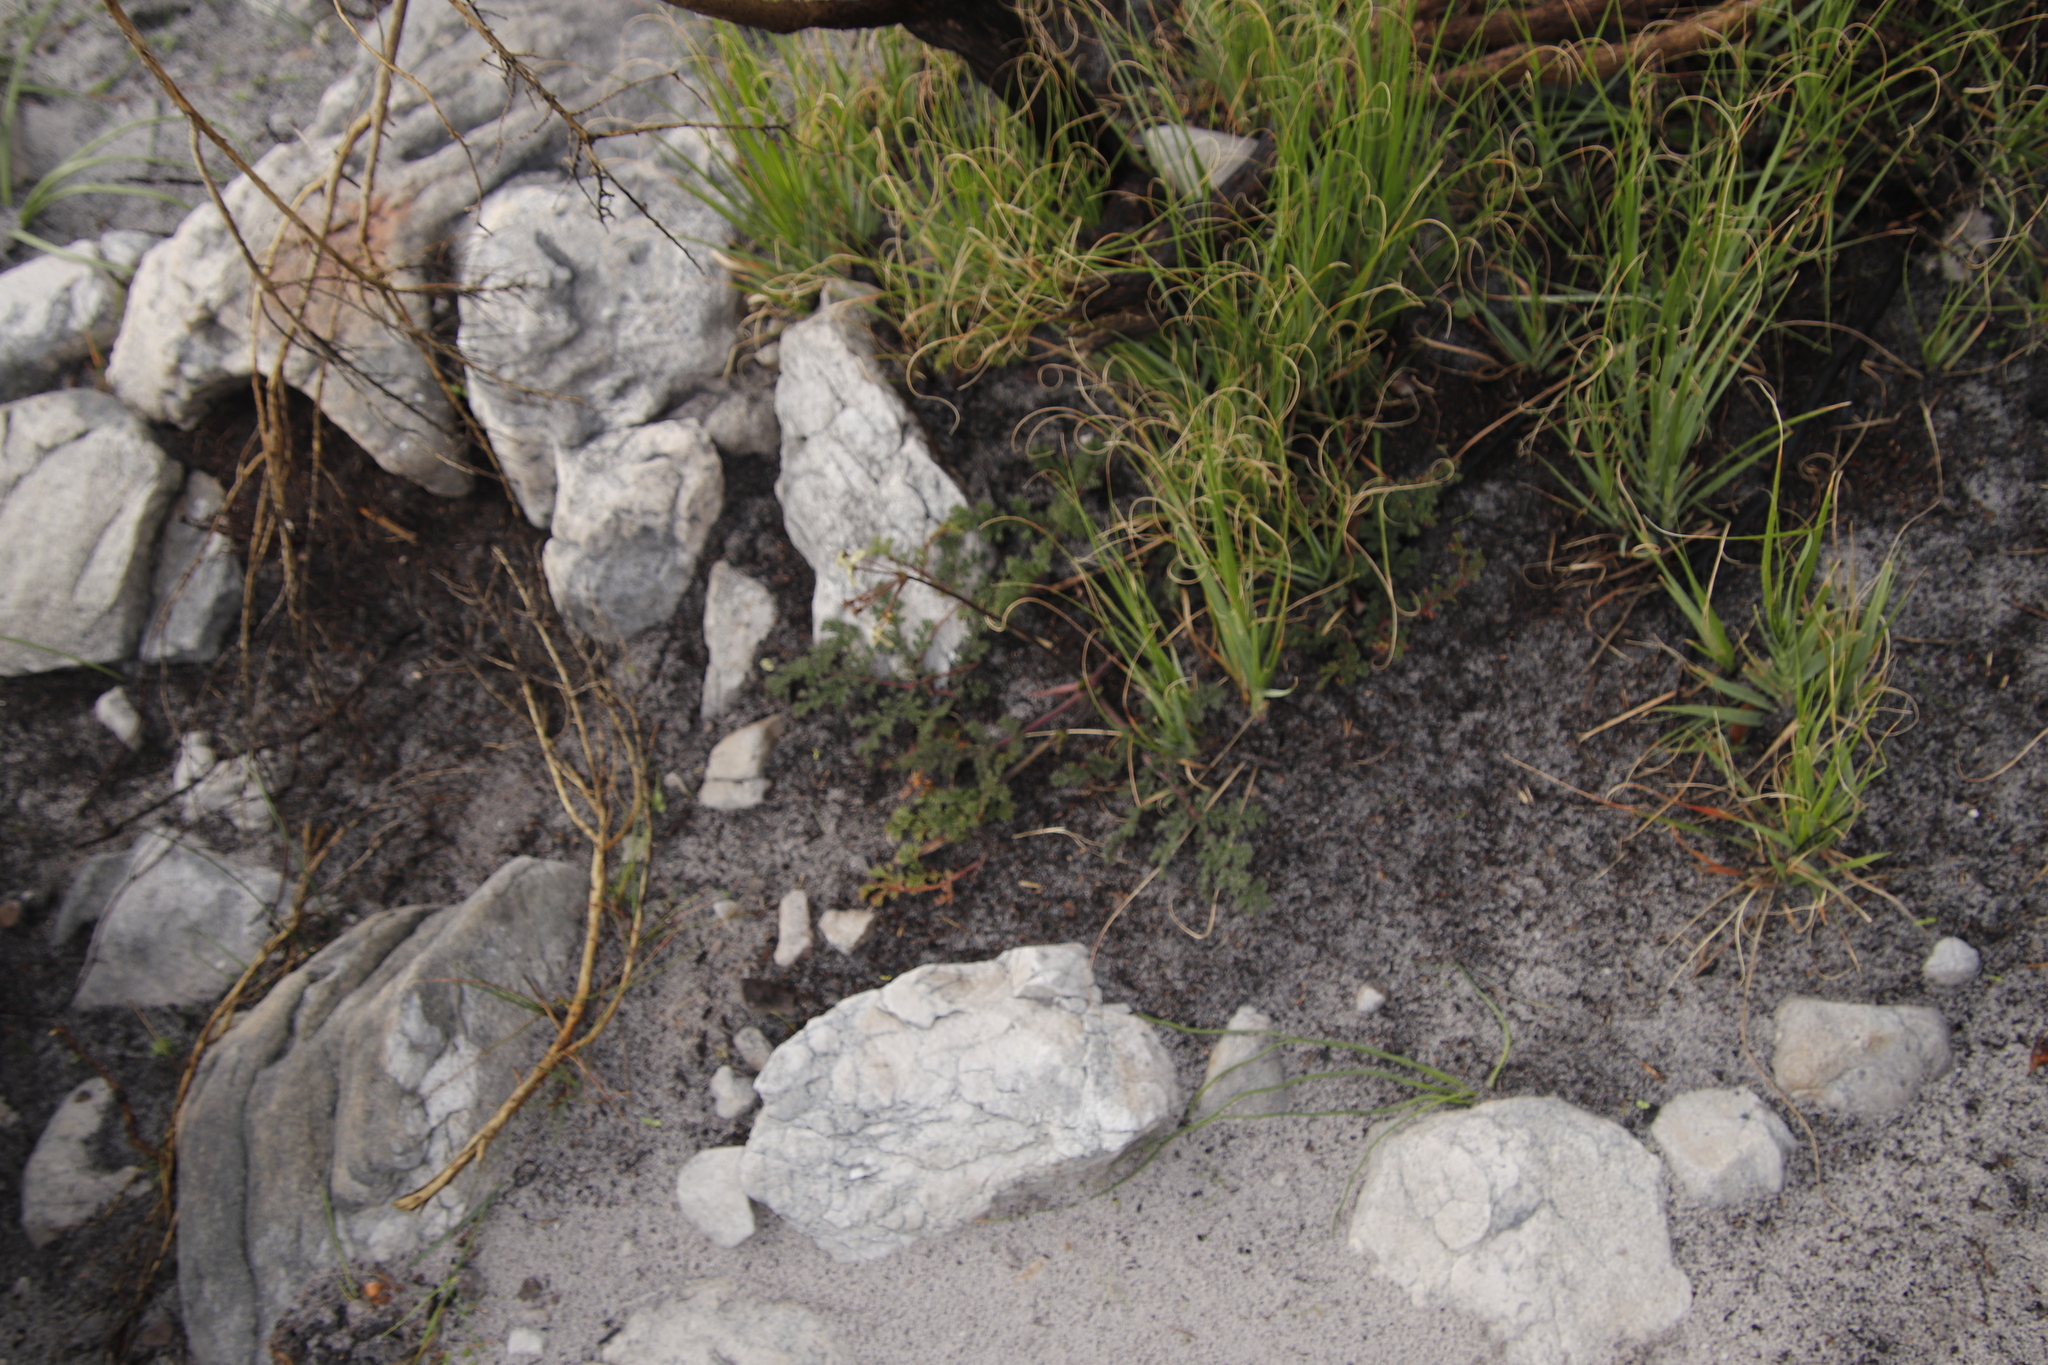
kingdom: Plantae
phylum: Tracheophyta
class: Magnoliopsida
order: Geraniales
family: Geraniaceae
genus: Pelargonium
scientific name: Pelargonium triste
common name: Night-scent pelargonium
